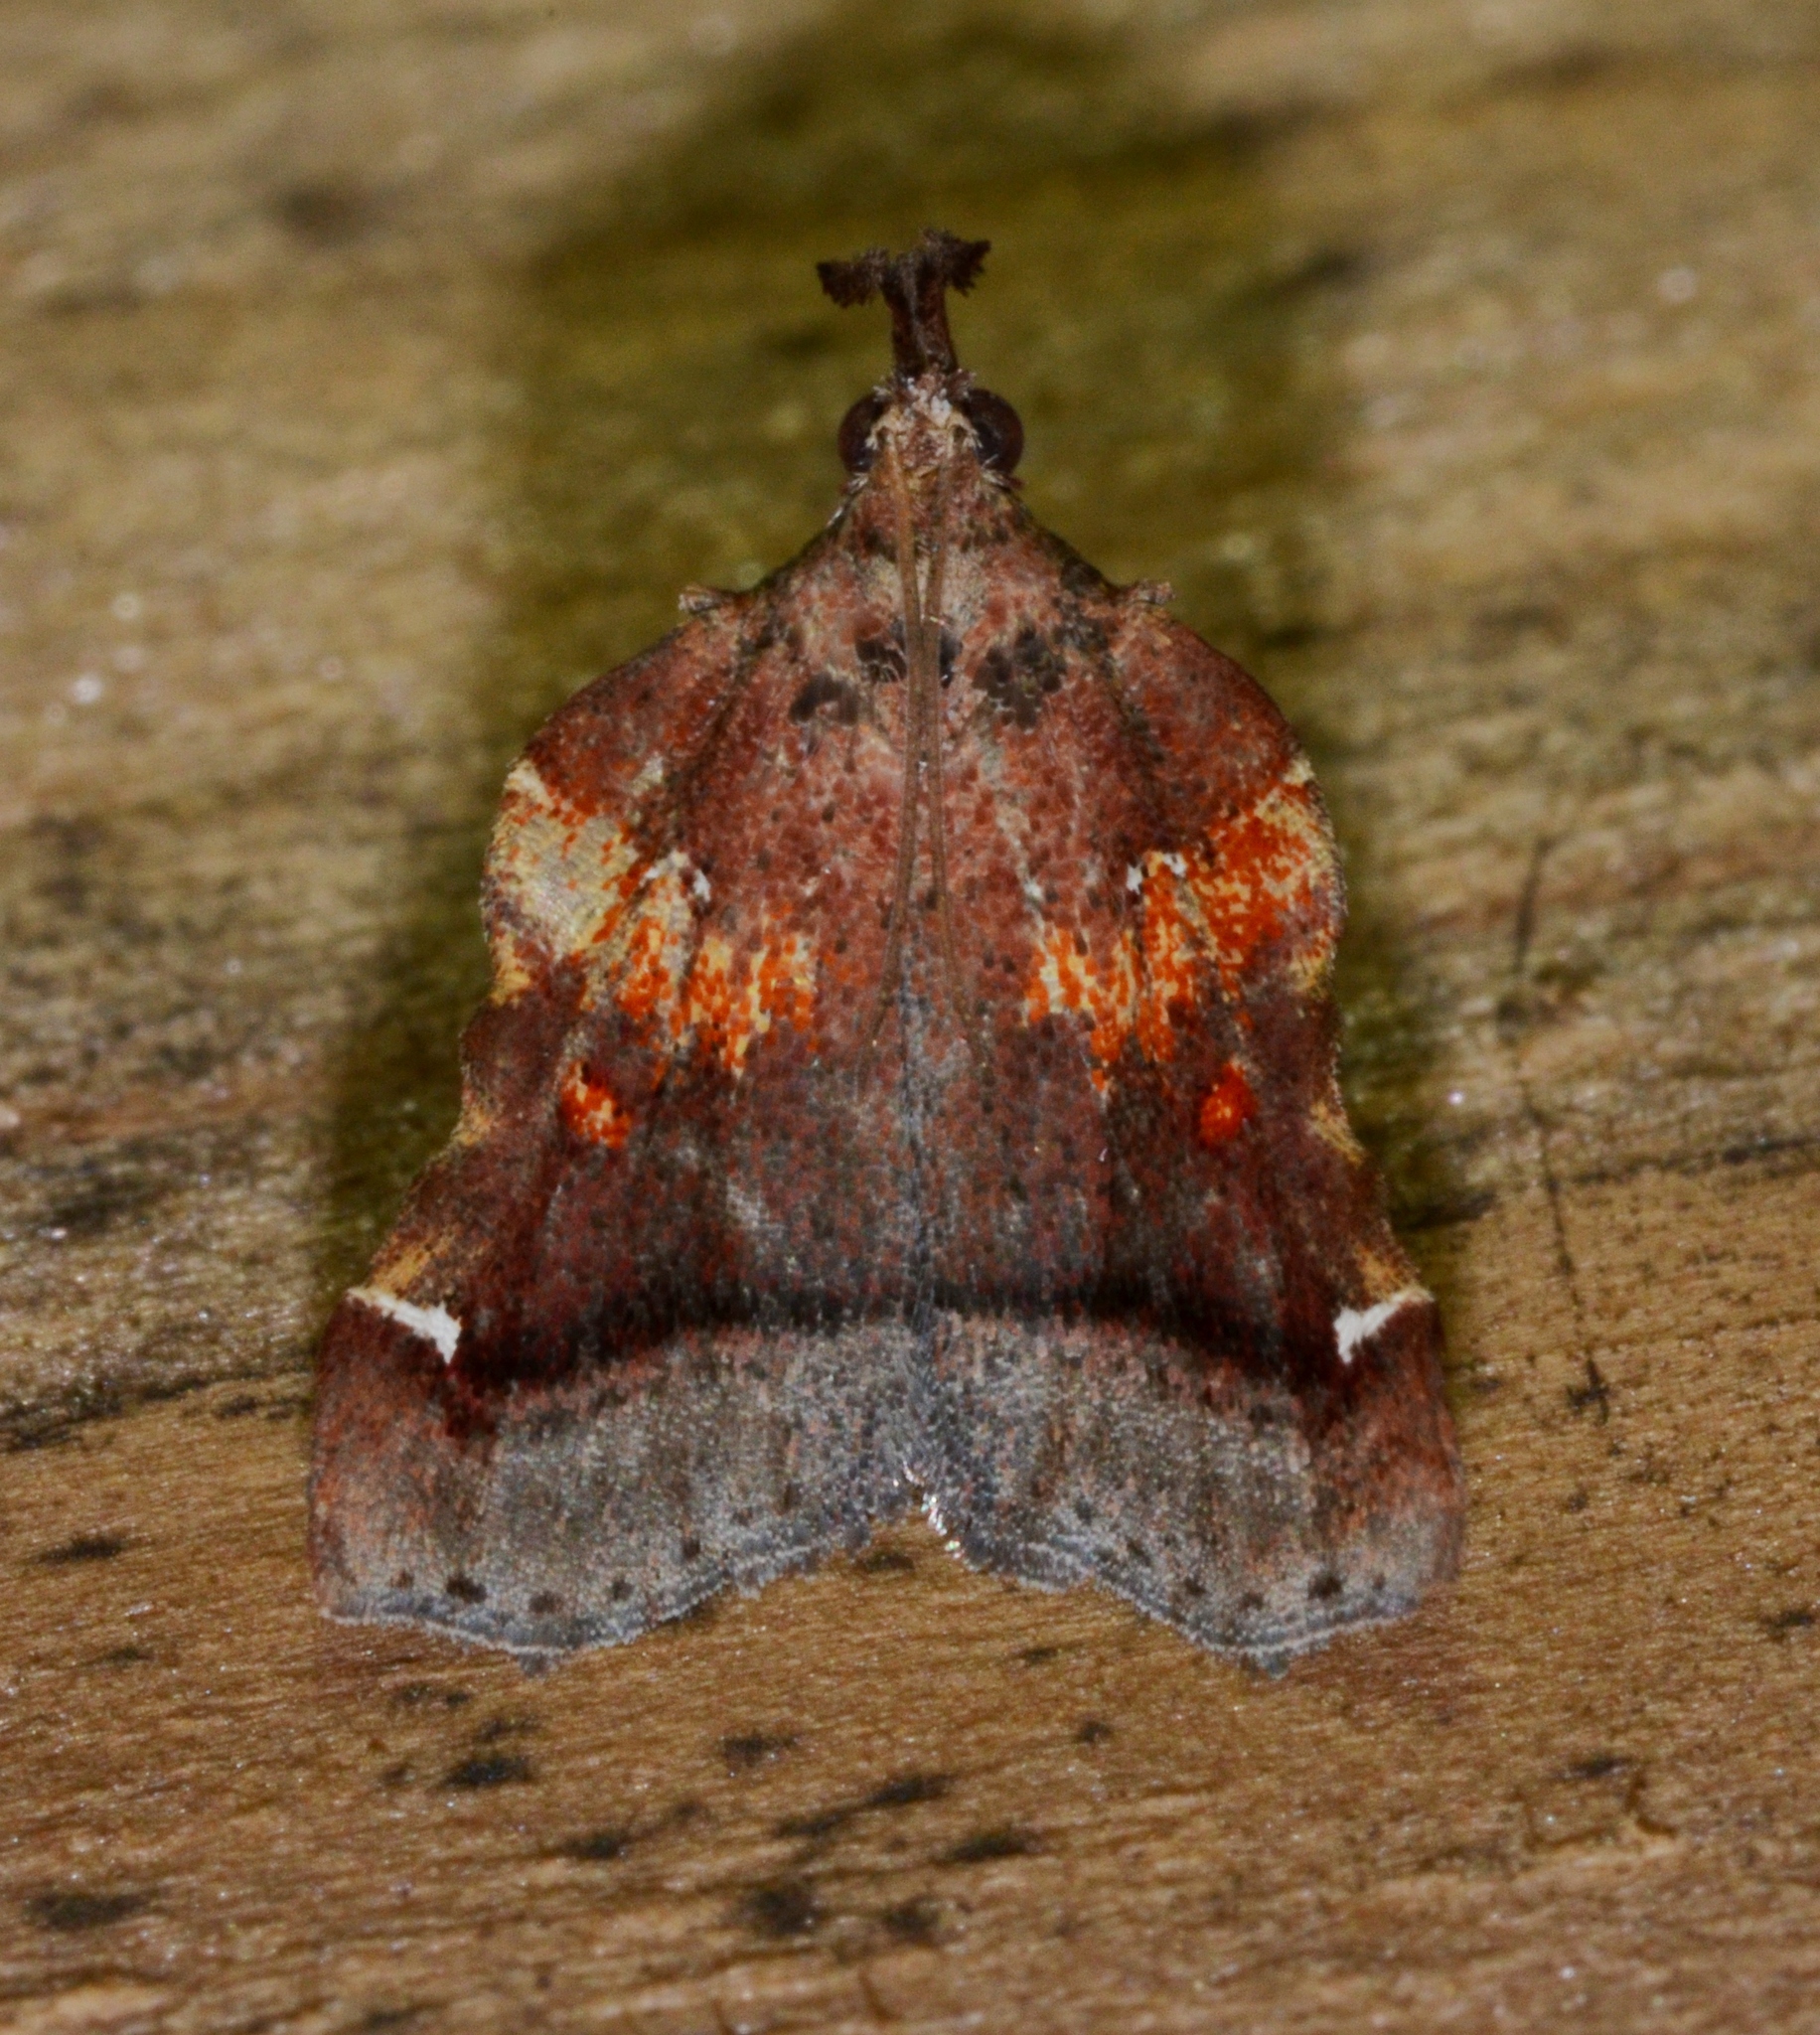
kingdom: Animalia
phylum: Arthropoda
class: Insecta
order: Lepidoptera
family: Pyralidae
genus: Clydonopteron
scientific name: Clydonopteron sacculana
